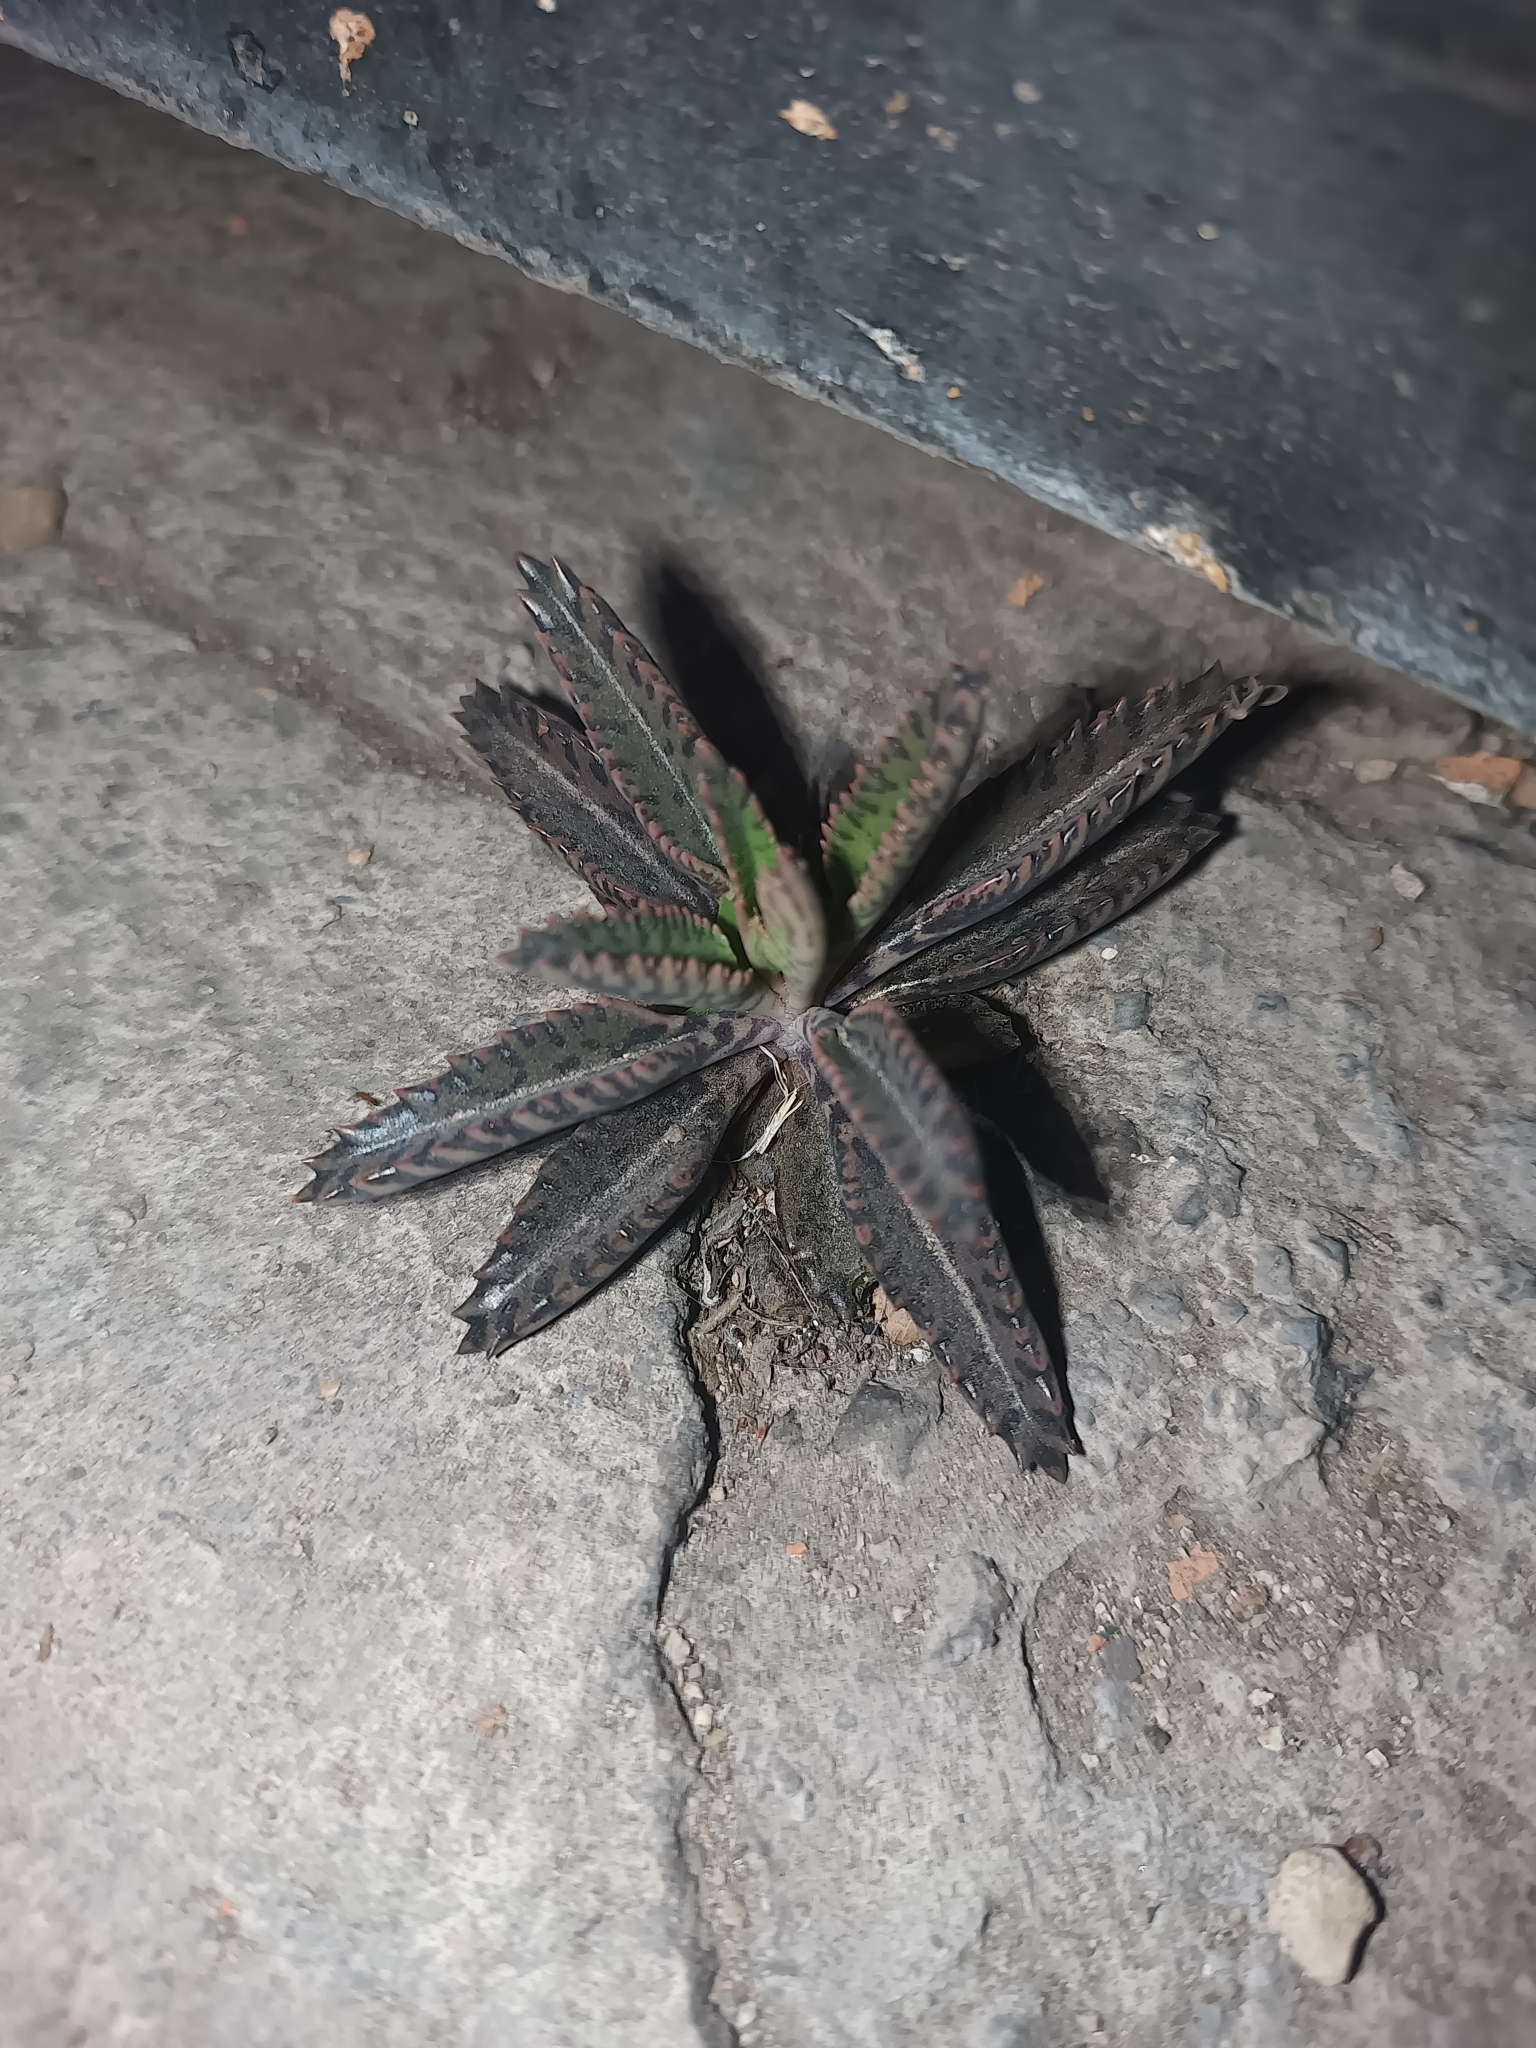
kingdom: Plantae
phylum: Tracheophyta
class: Magnoliopsida
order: Saxifragales
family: Crassulaceae
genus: Kalanchoe
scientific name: Kalanchoe houghtonii
